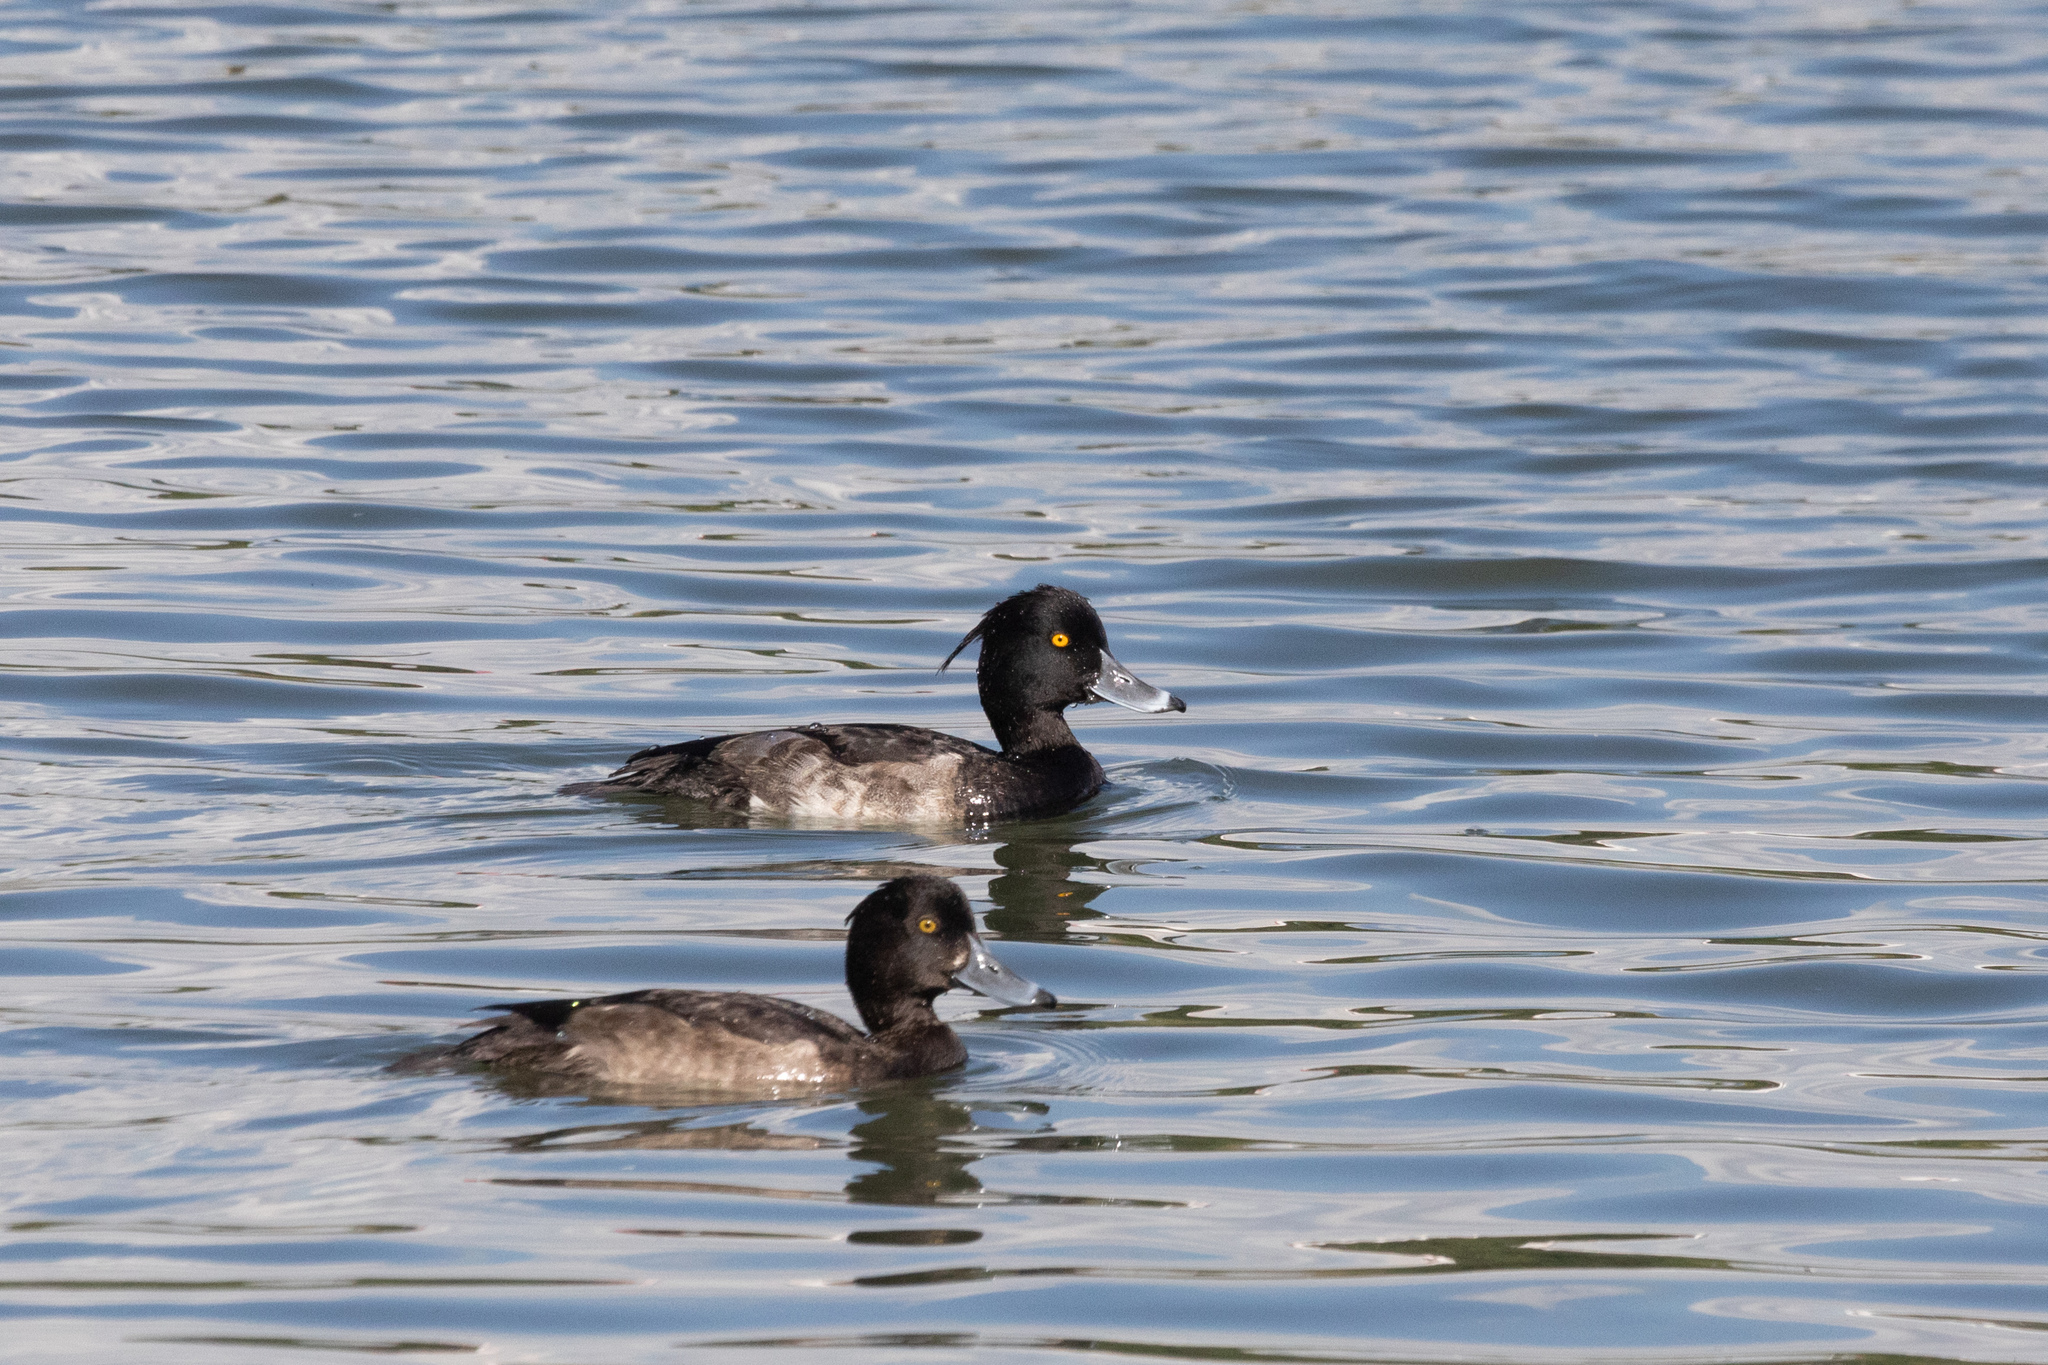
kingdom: Animalia
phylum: Chordata
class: Aves
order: Anseriformes
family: Anatidae
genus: Aythya
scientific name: Aythya fuligula
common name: Tufted duck
